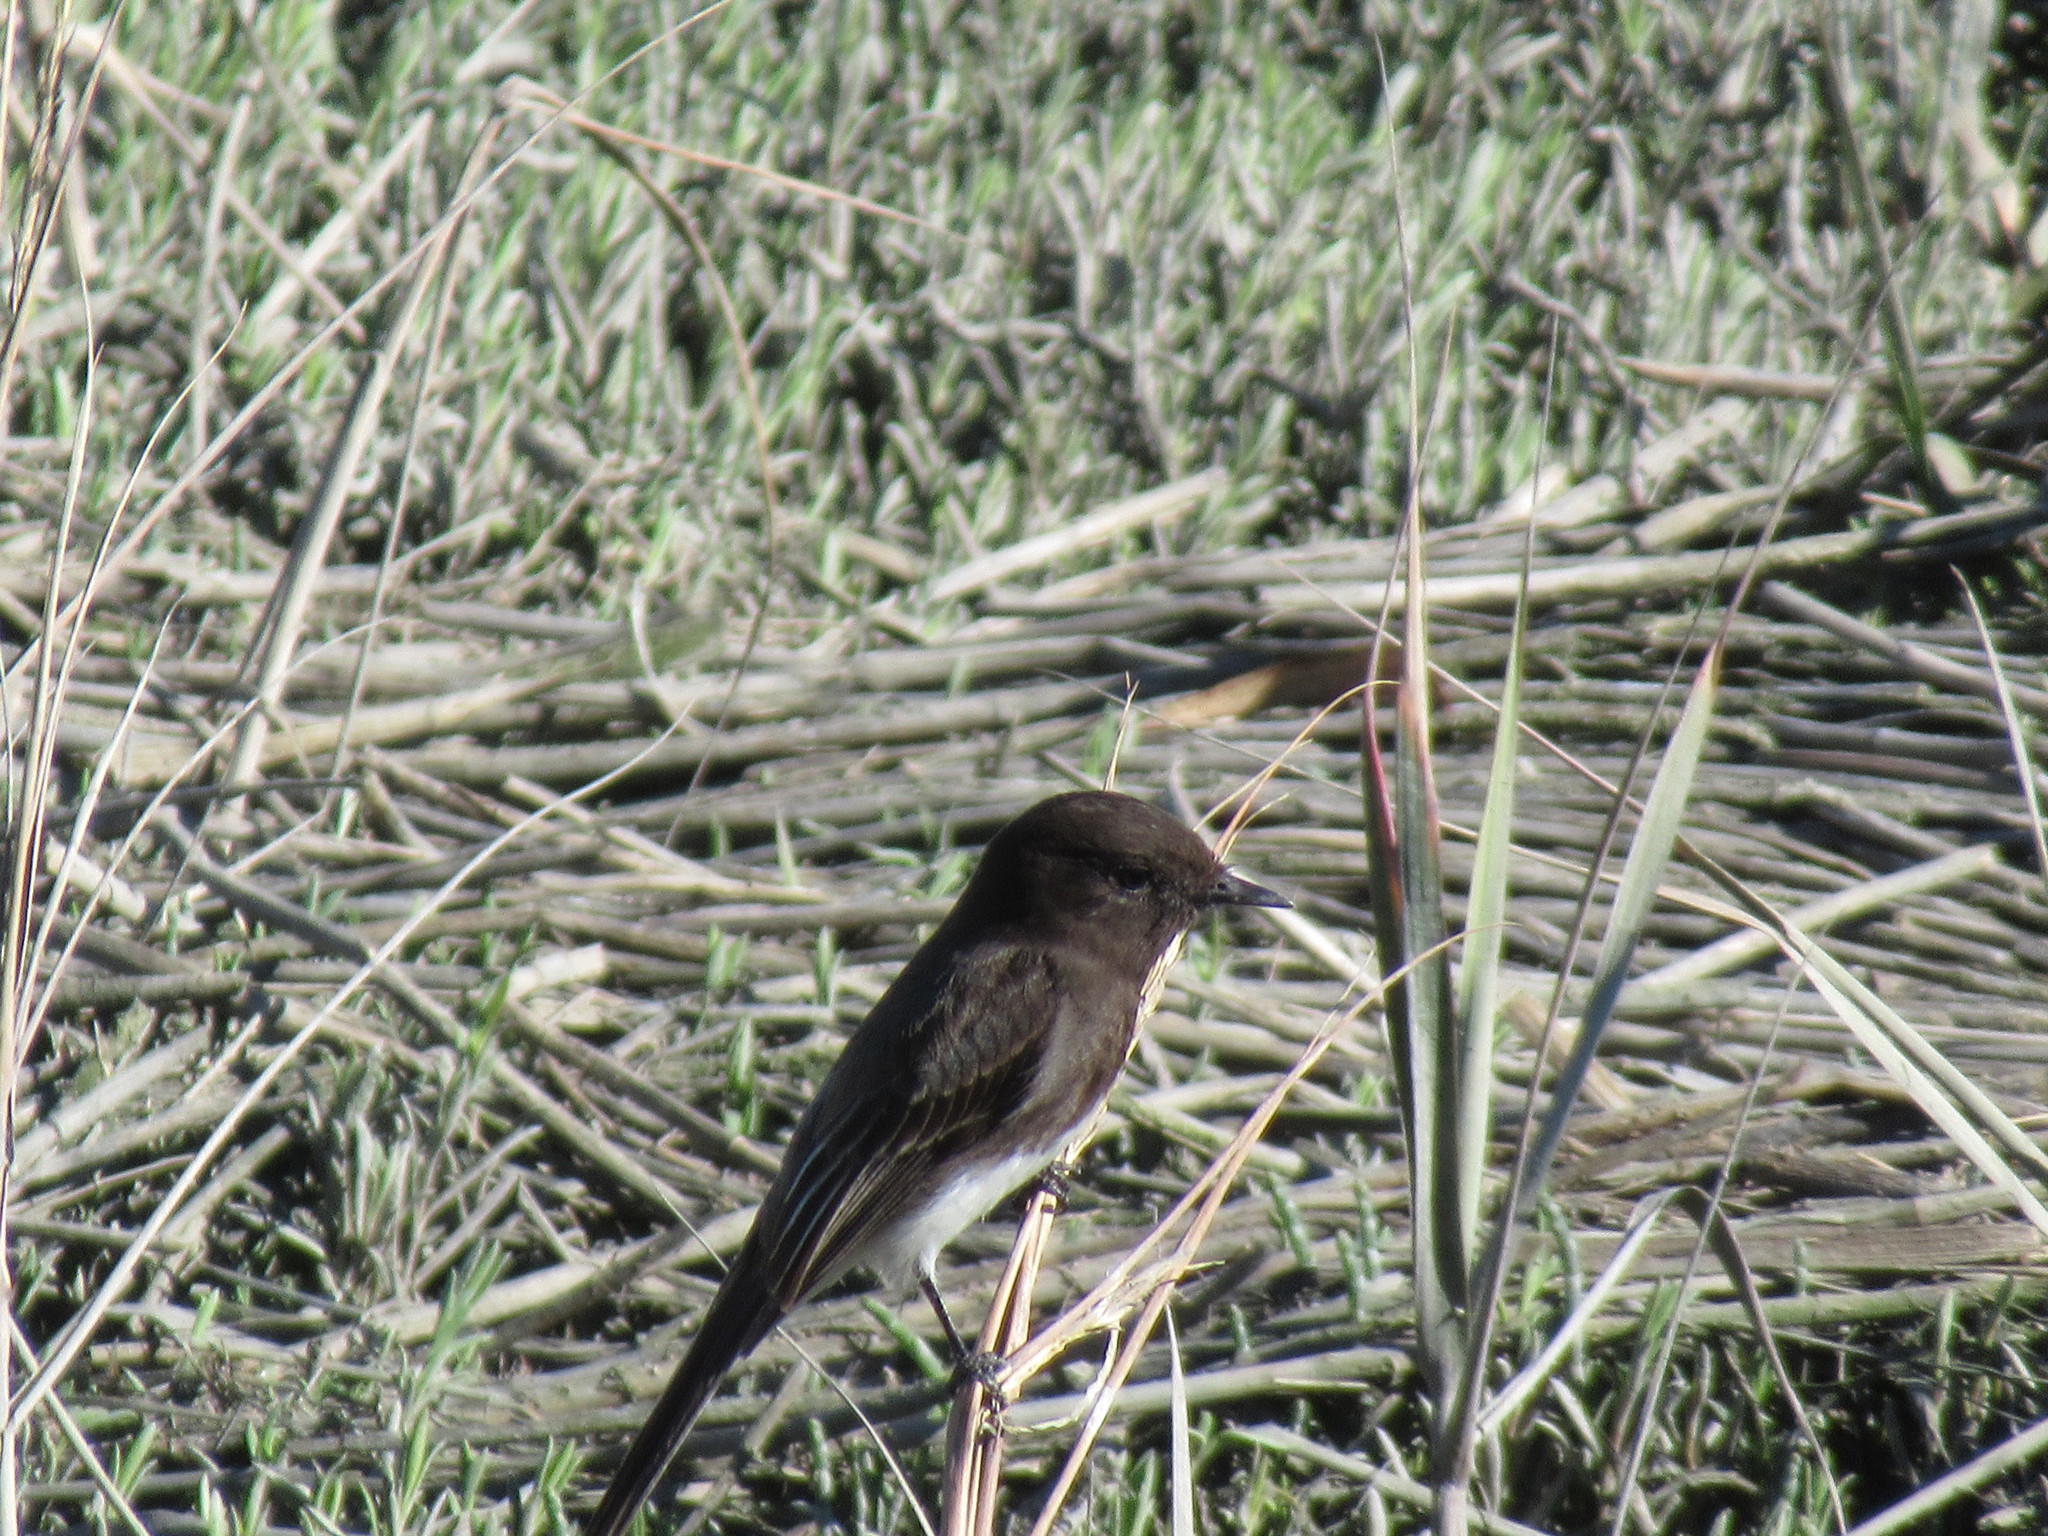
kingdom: Animalia
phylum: Chordata
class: Aves
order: Passeriformes
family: Tyrannidae
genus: Sayornis
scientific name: Sayornis nigricans
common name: Black phoebe
